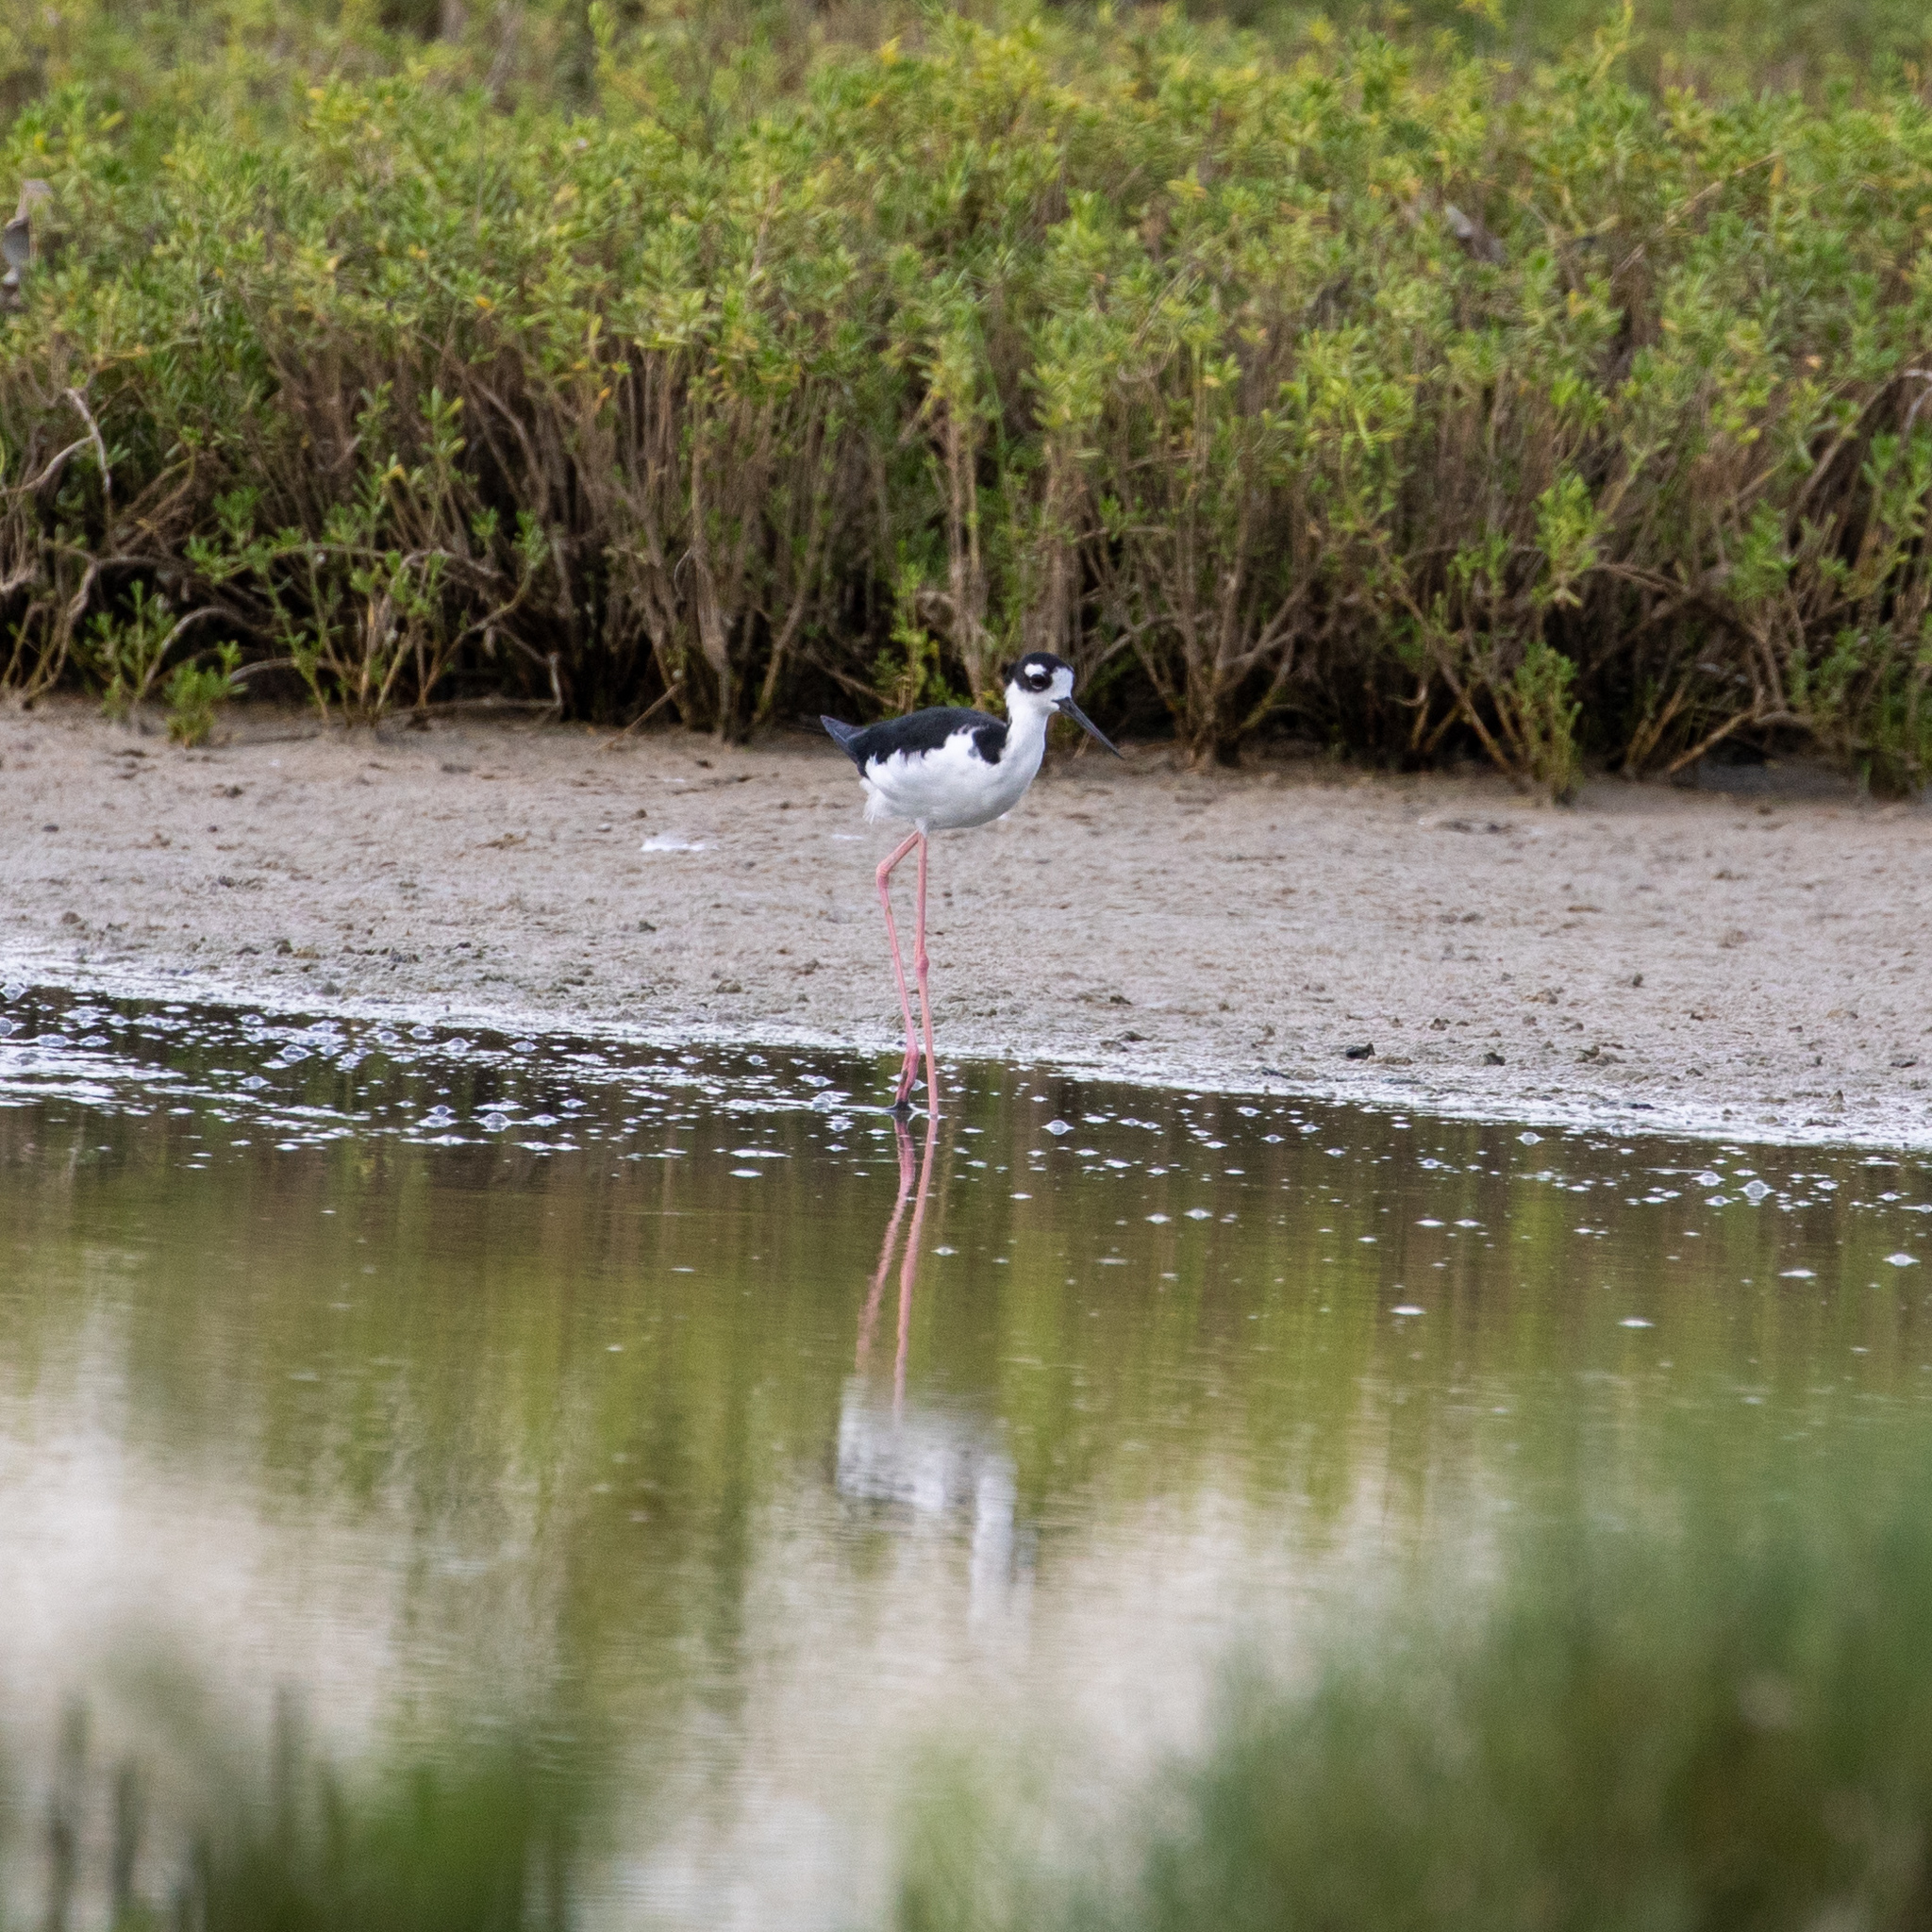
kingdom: Animalia
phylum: Chordata
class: Aves
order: Charadriiformes
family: Recurvirostridae
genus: Himantopus
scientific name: Himantopus mexicanus
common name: Black-necked stilt
